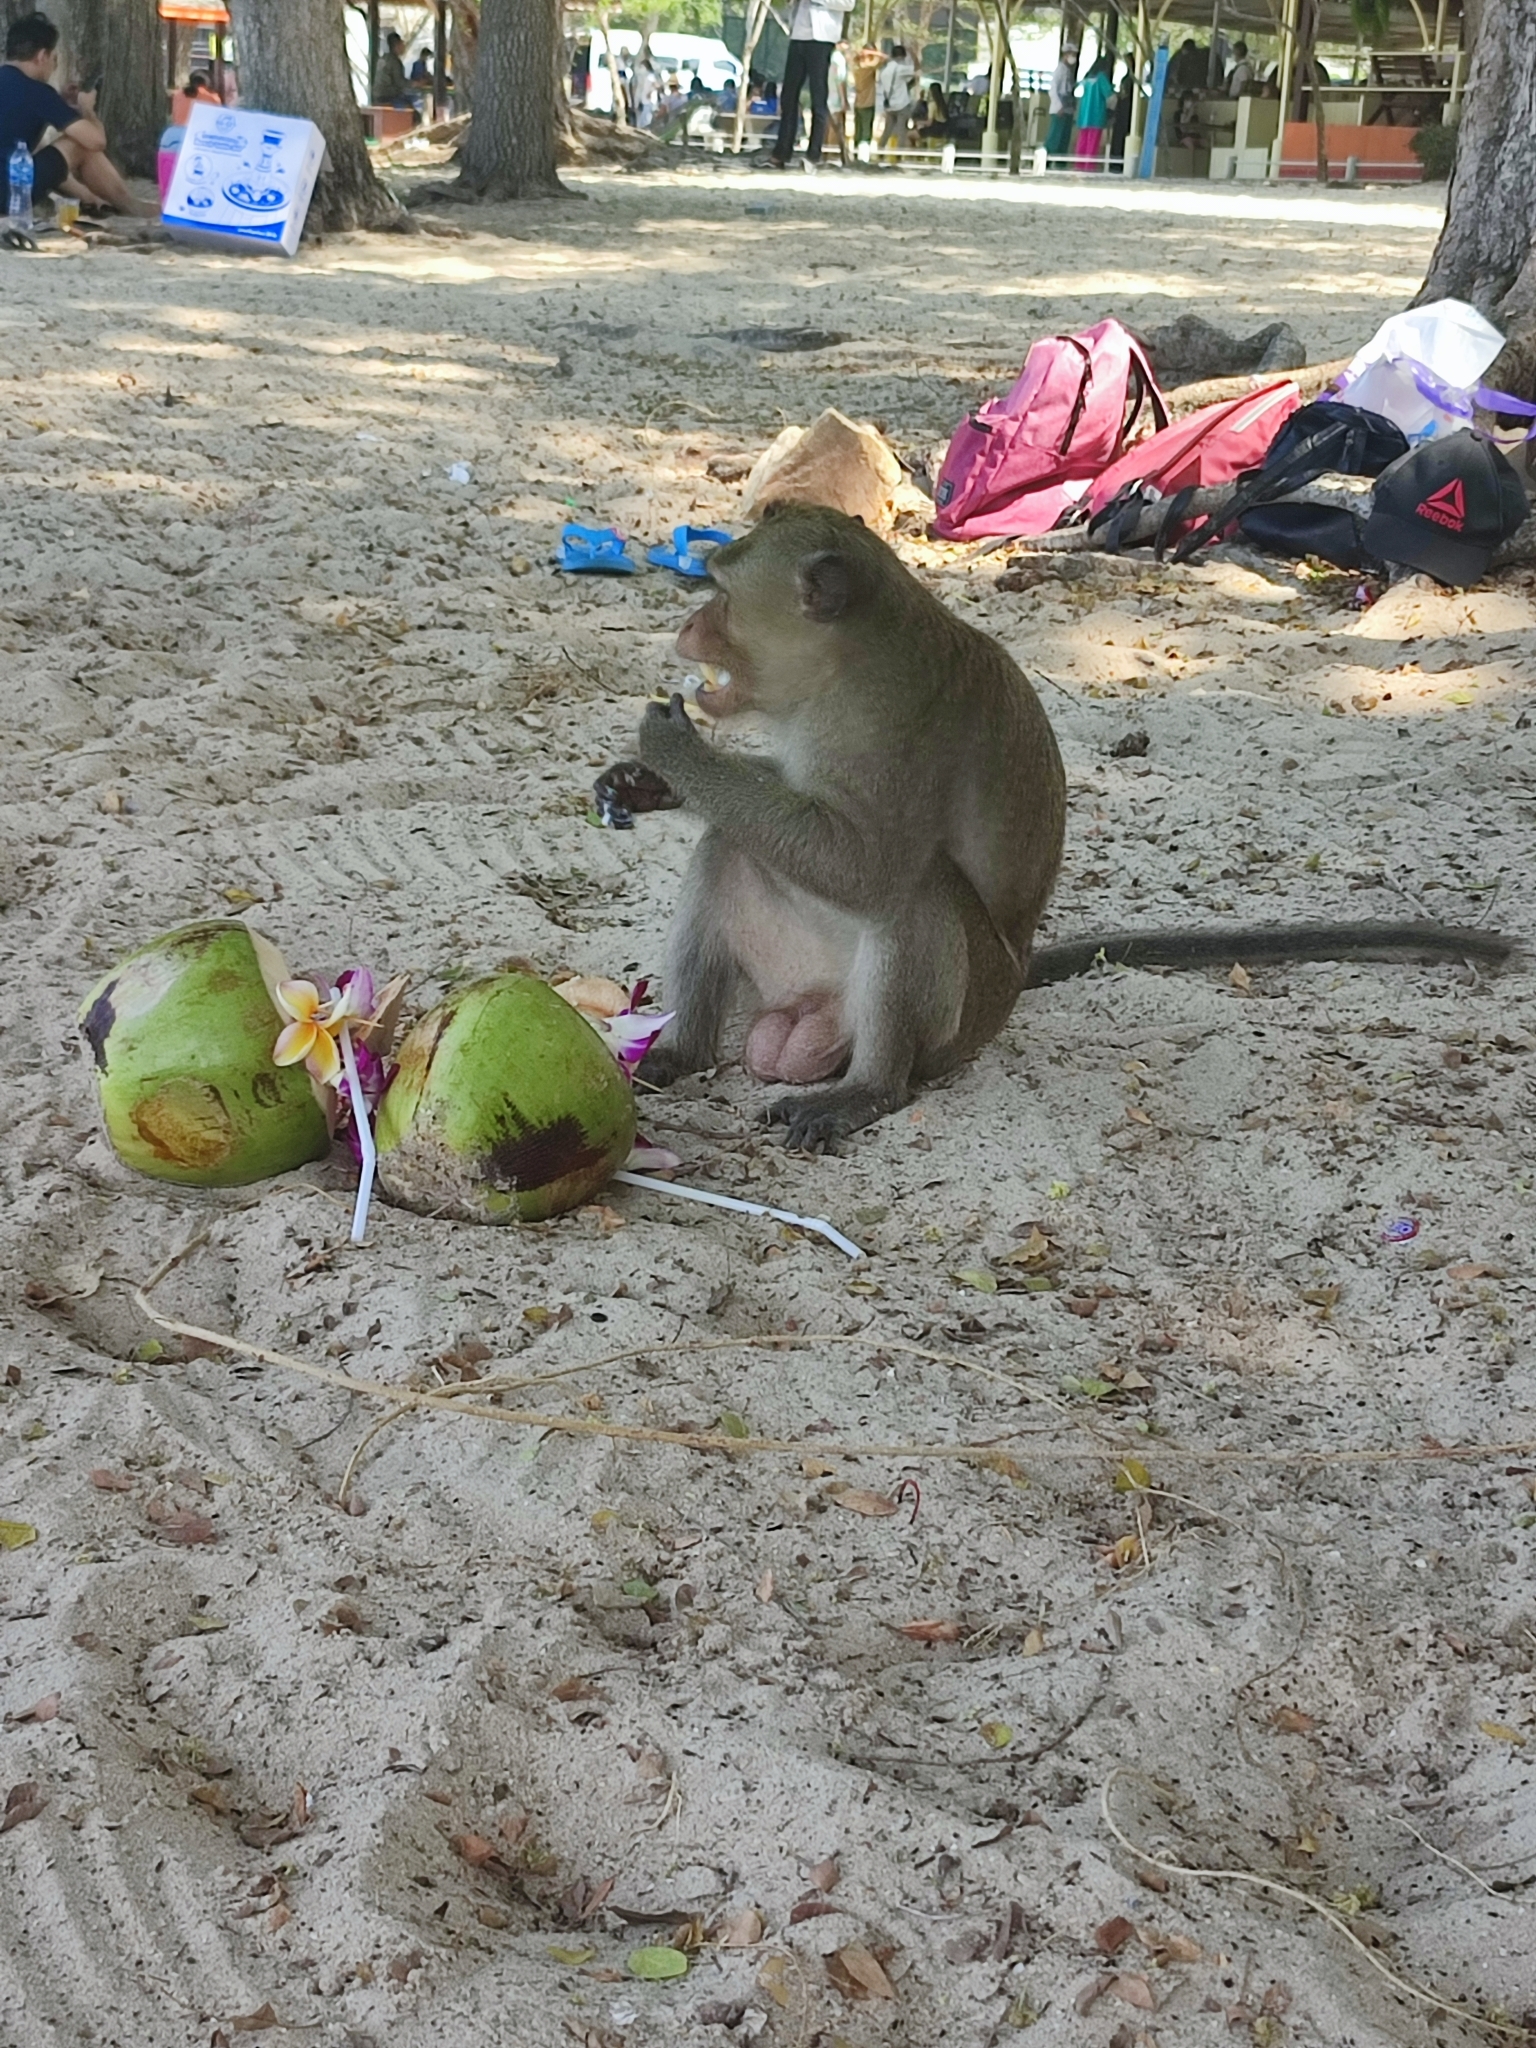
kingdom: Animalia
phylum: Chordata
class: Mammalia
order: Primates
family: Cercopithecidae
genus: Macaca
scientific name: Macaca fascicularis
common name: Crab-eating macaque
